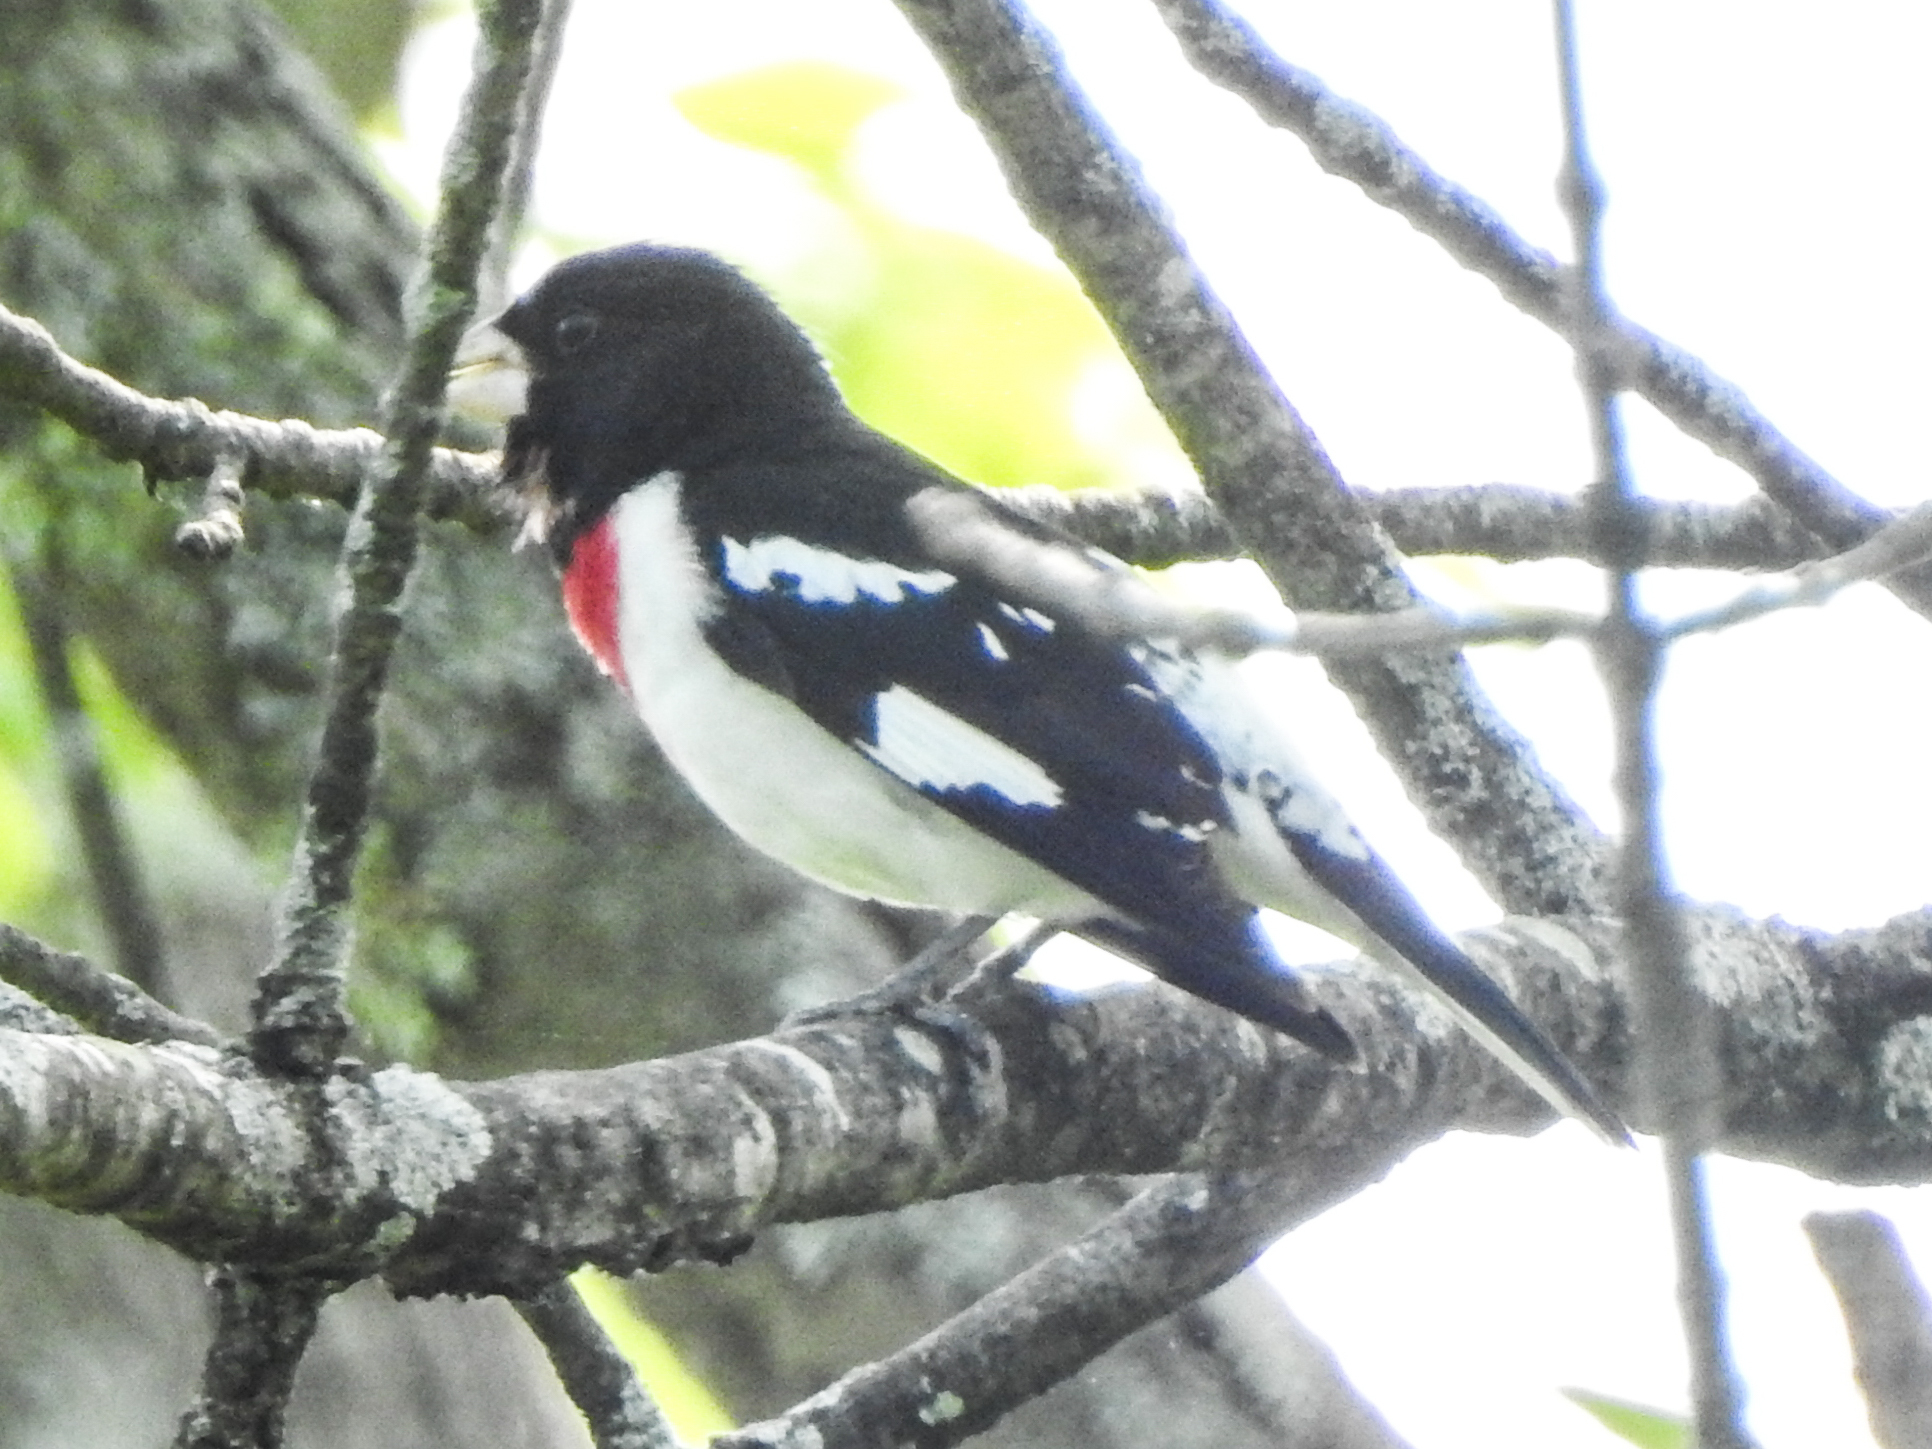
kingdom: Animalia
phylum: Chordata
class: Aves
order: Passeriformes
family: Cardinalidae
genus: Pheucticus
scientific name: Pheucticus ludovicianus
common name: Rose-breasted grosbeak
